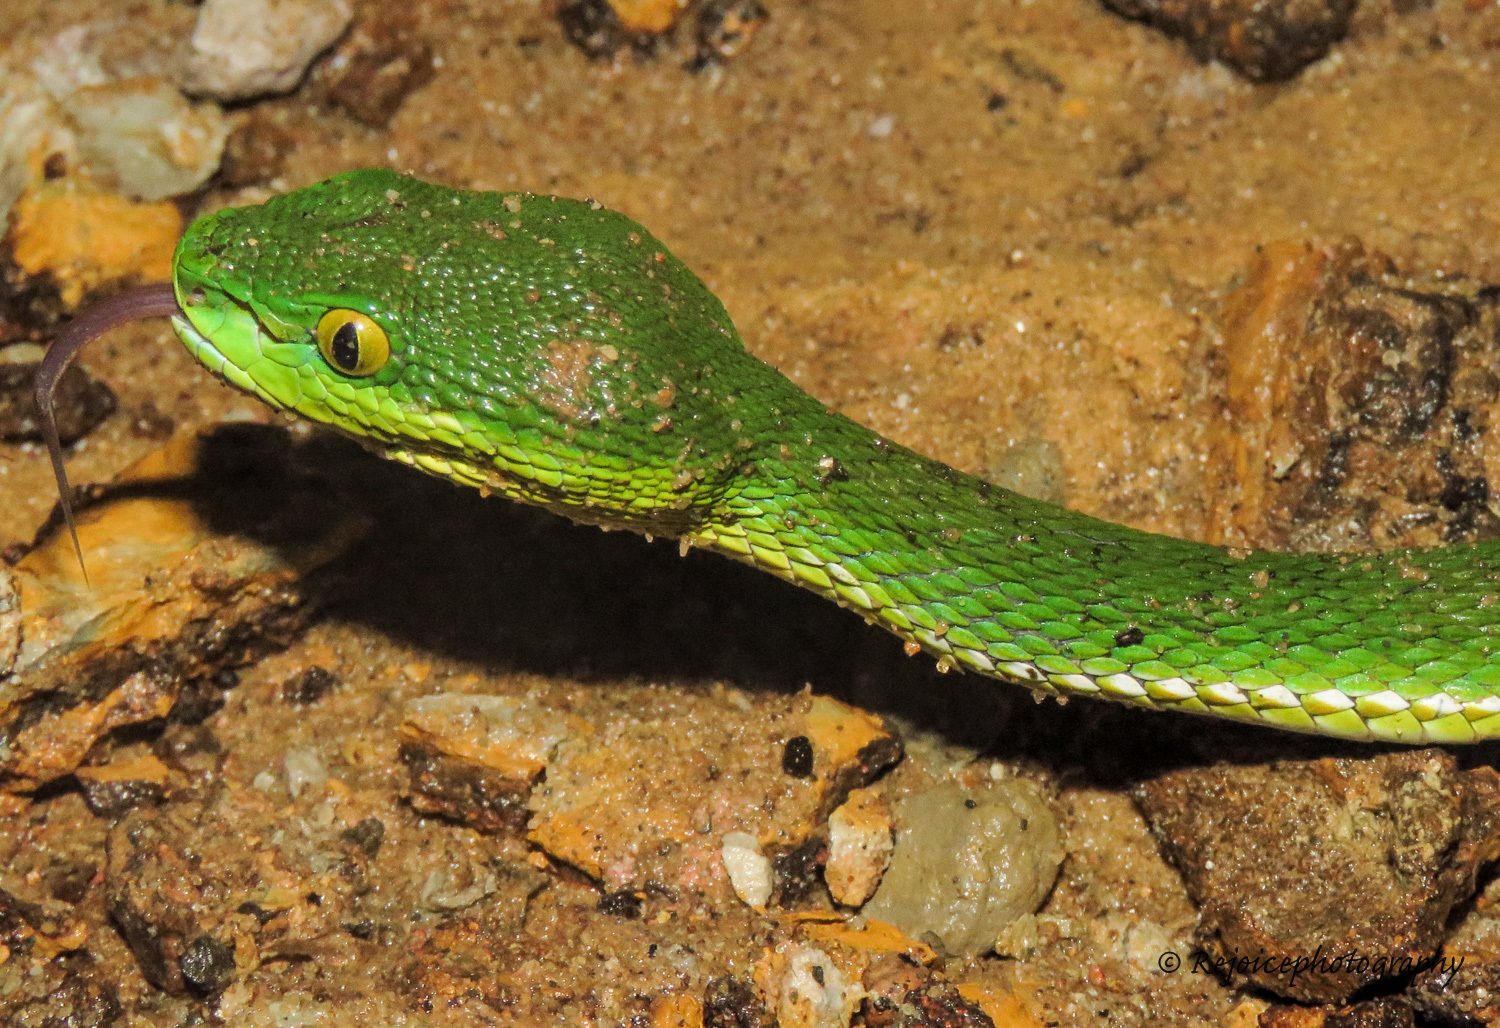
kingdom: Animalia
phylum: Chordata
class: Squamata
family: Viperidae
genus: Trimeresurus
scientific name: Trimeresurus erythrurus
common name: Redtail (bamboo) pit viper
